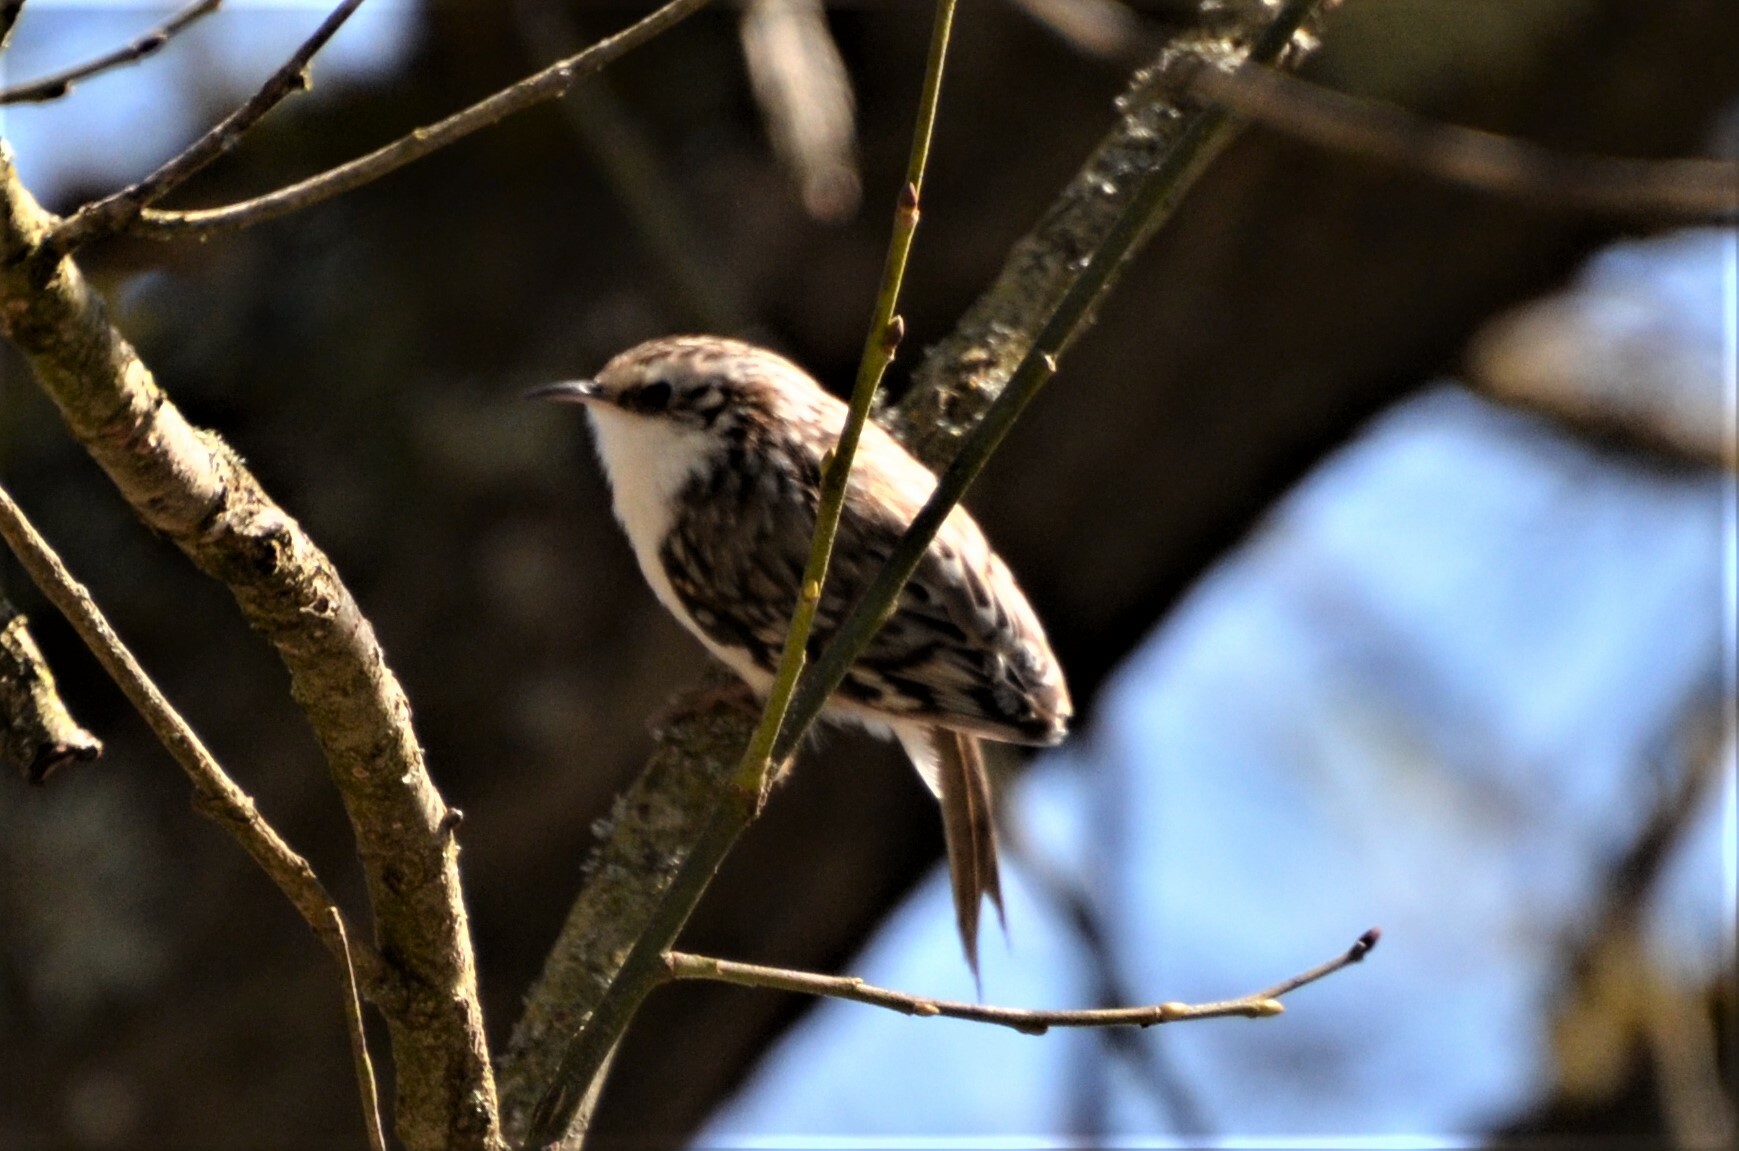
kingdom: Animalia
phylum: Chordata
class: Aves
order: Passeriformes
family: Certhiidae
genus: Certhia
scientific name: Certhia familiaris
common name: Eurasian treecreeper
